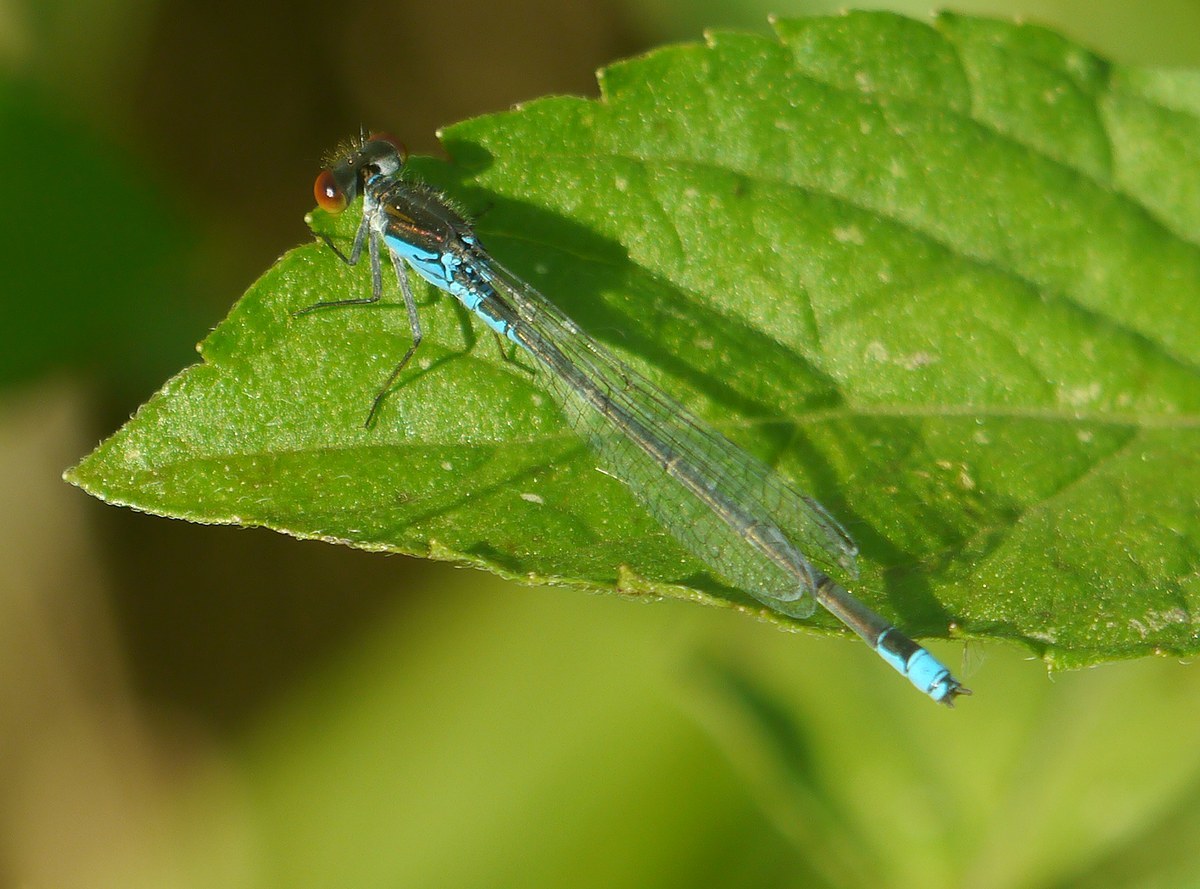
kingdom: Animalia
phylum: Arthropoda
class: Insecta
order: Odonata
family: Coenagrionidae
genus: Erythromma
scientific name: Erythromma viridulum
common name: Small red-eyed damselfly
